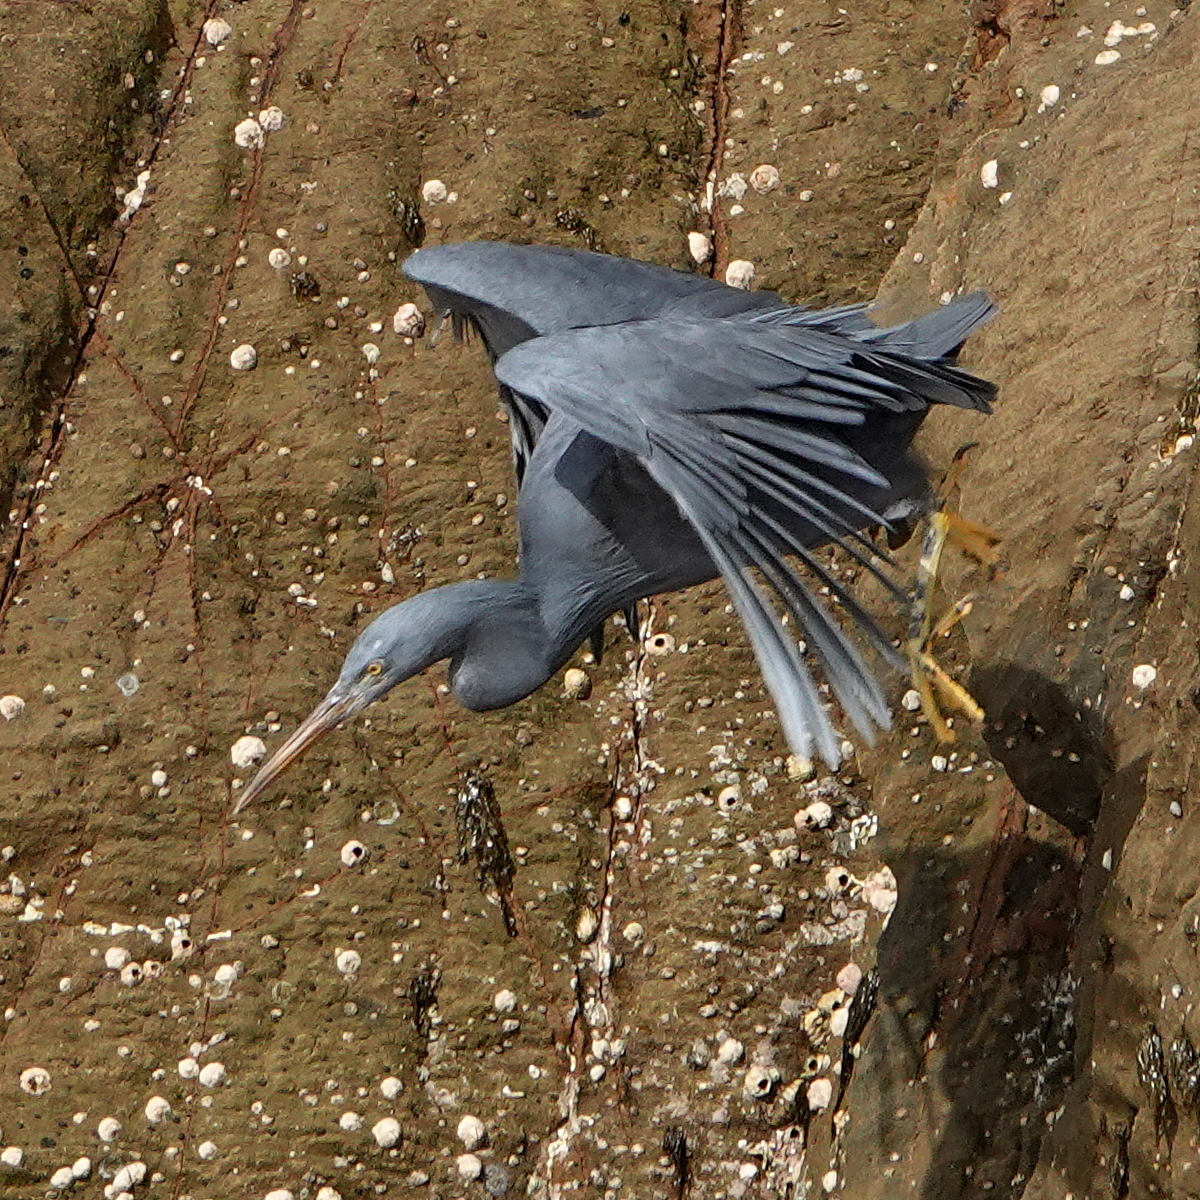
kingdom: Animalia
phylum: Chordata
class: Aves
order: Pelecaniformes
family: Ardeidae
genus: Egretta
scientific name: Egretta sacra
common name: Pacific reef heron
